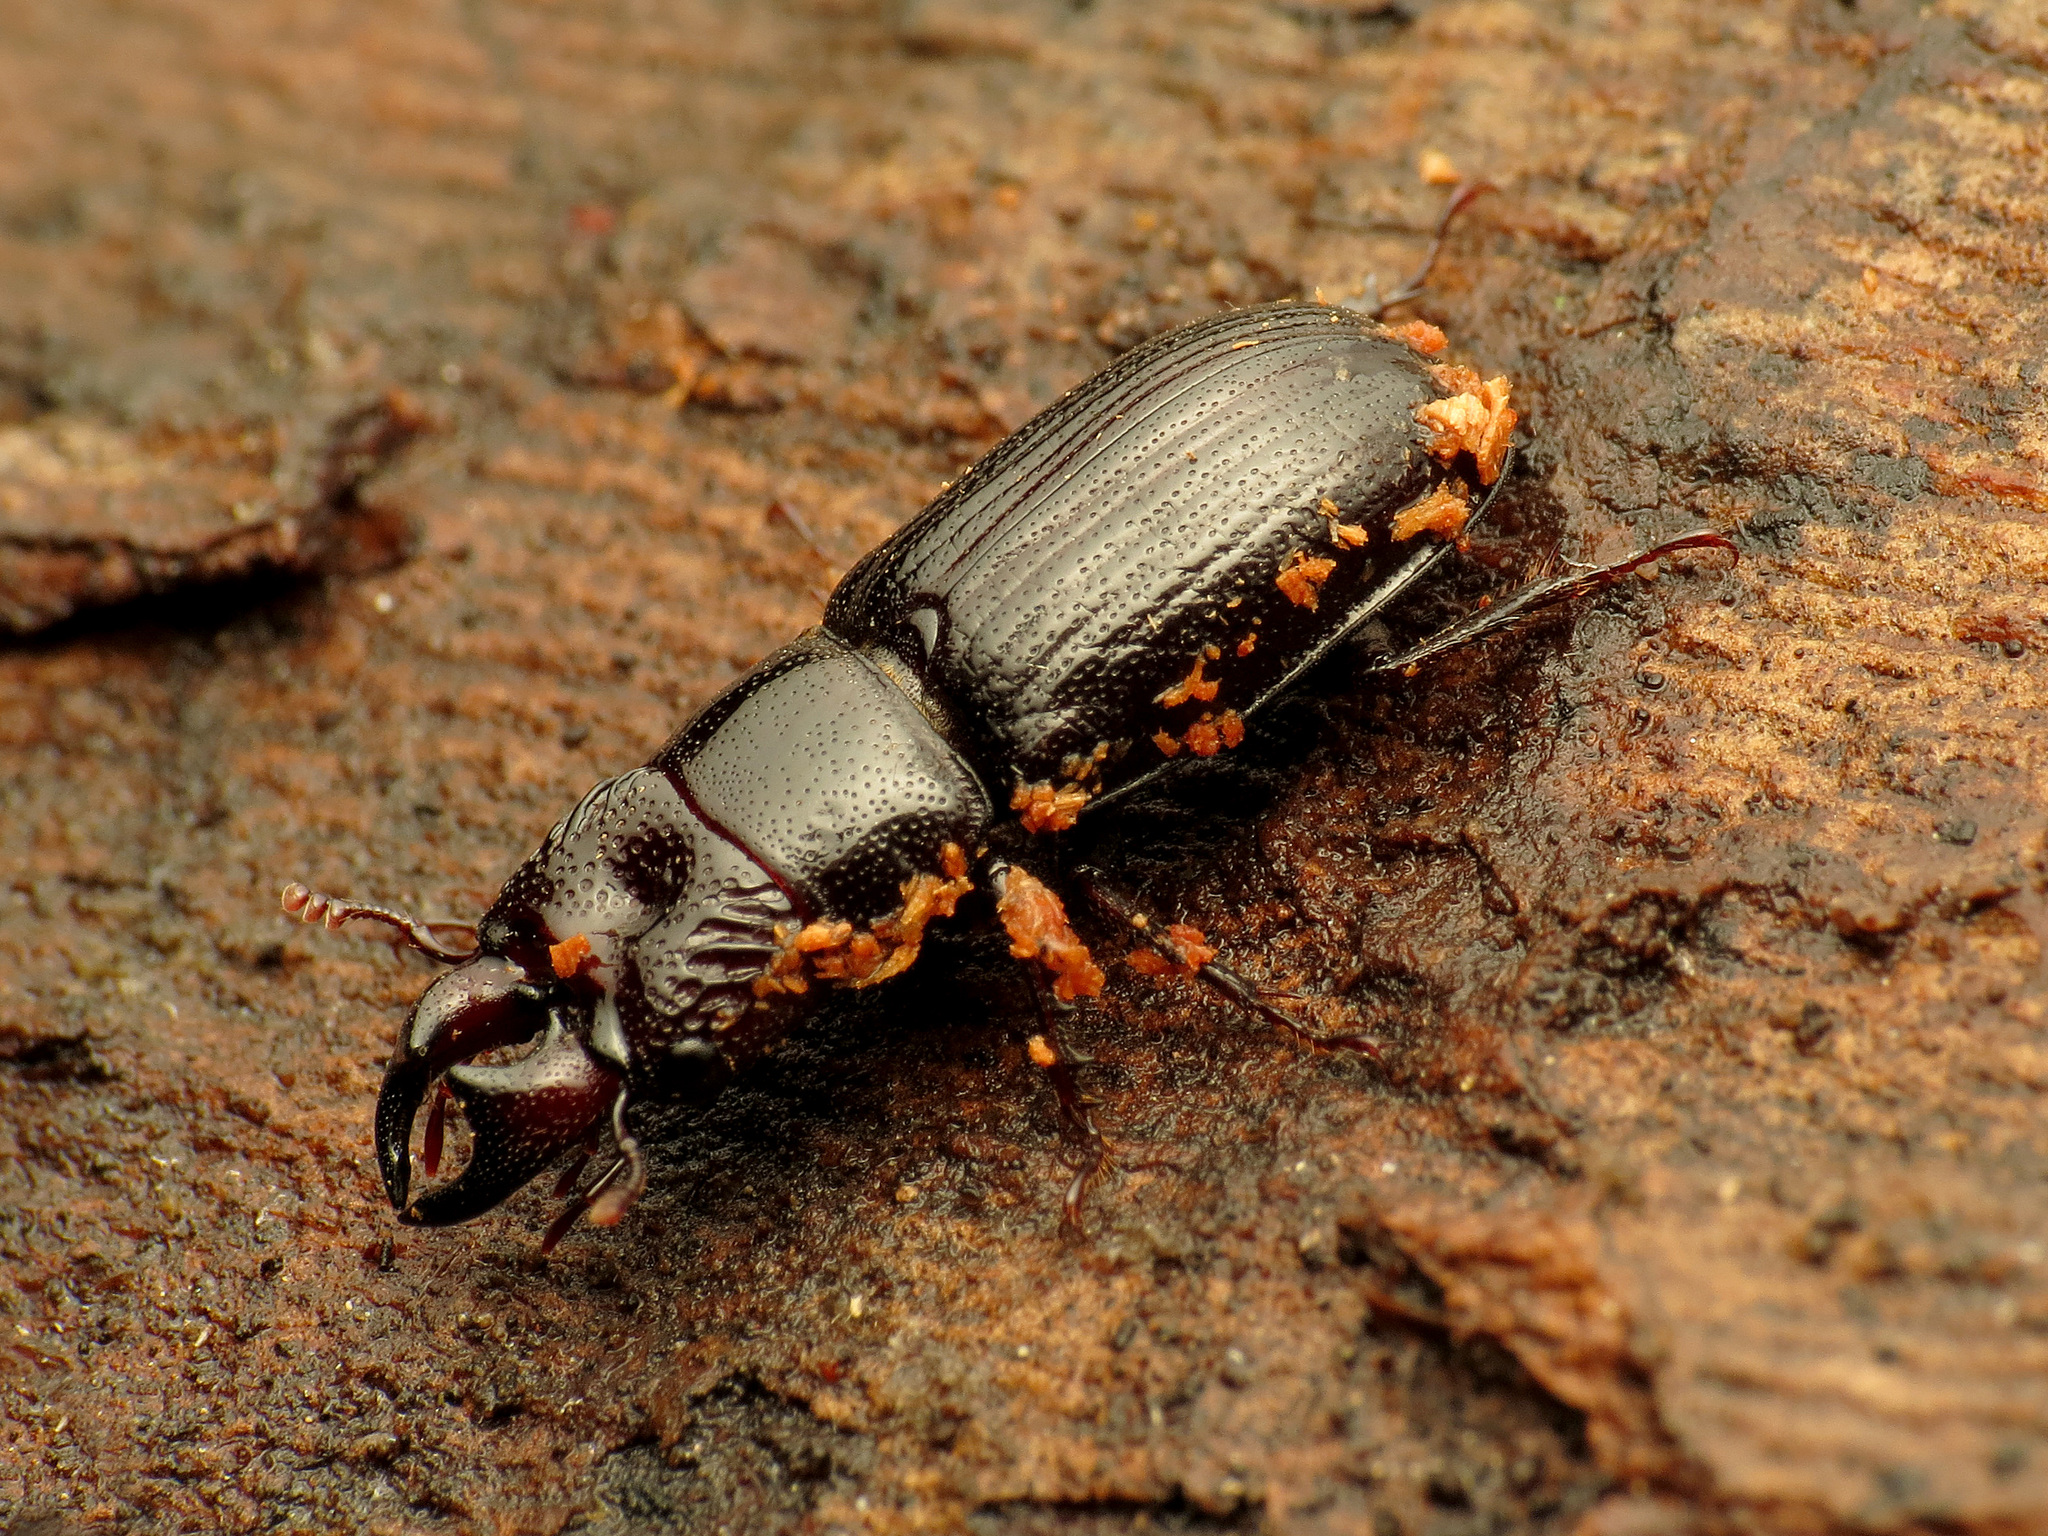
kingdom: Animalia
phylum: Arthropoda
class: Insecta
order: Coleoptera
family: Lucanidae
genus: Ceruchus
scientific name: Ceruchus piceus
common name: Red-rot decay stag beetle
